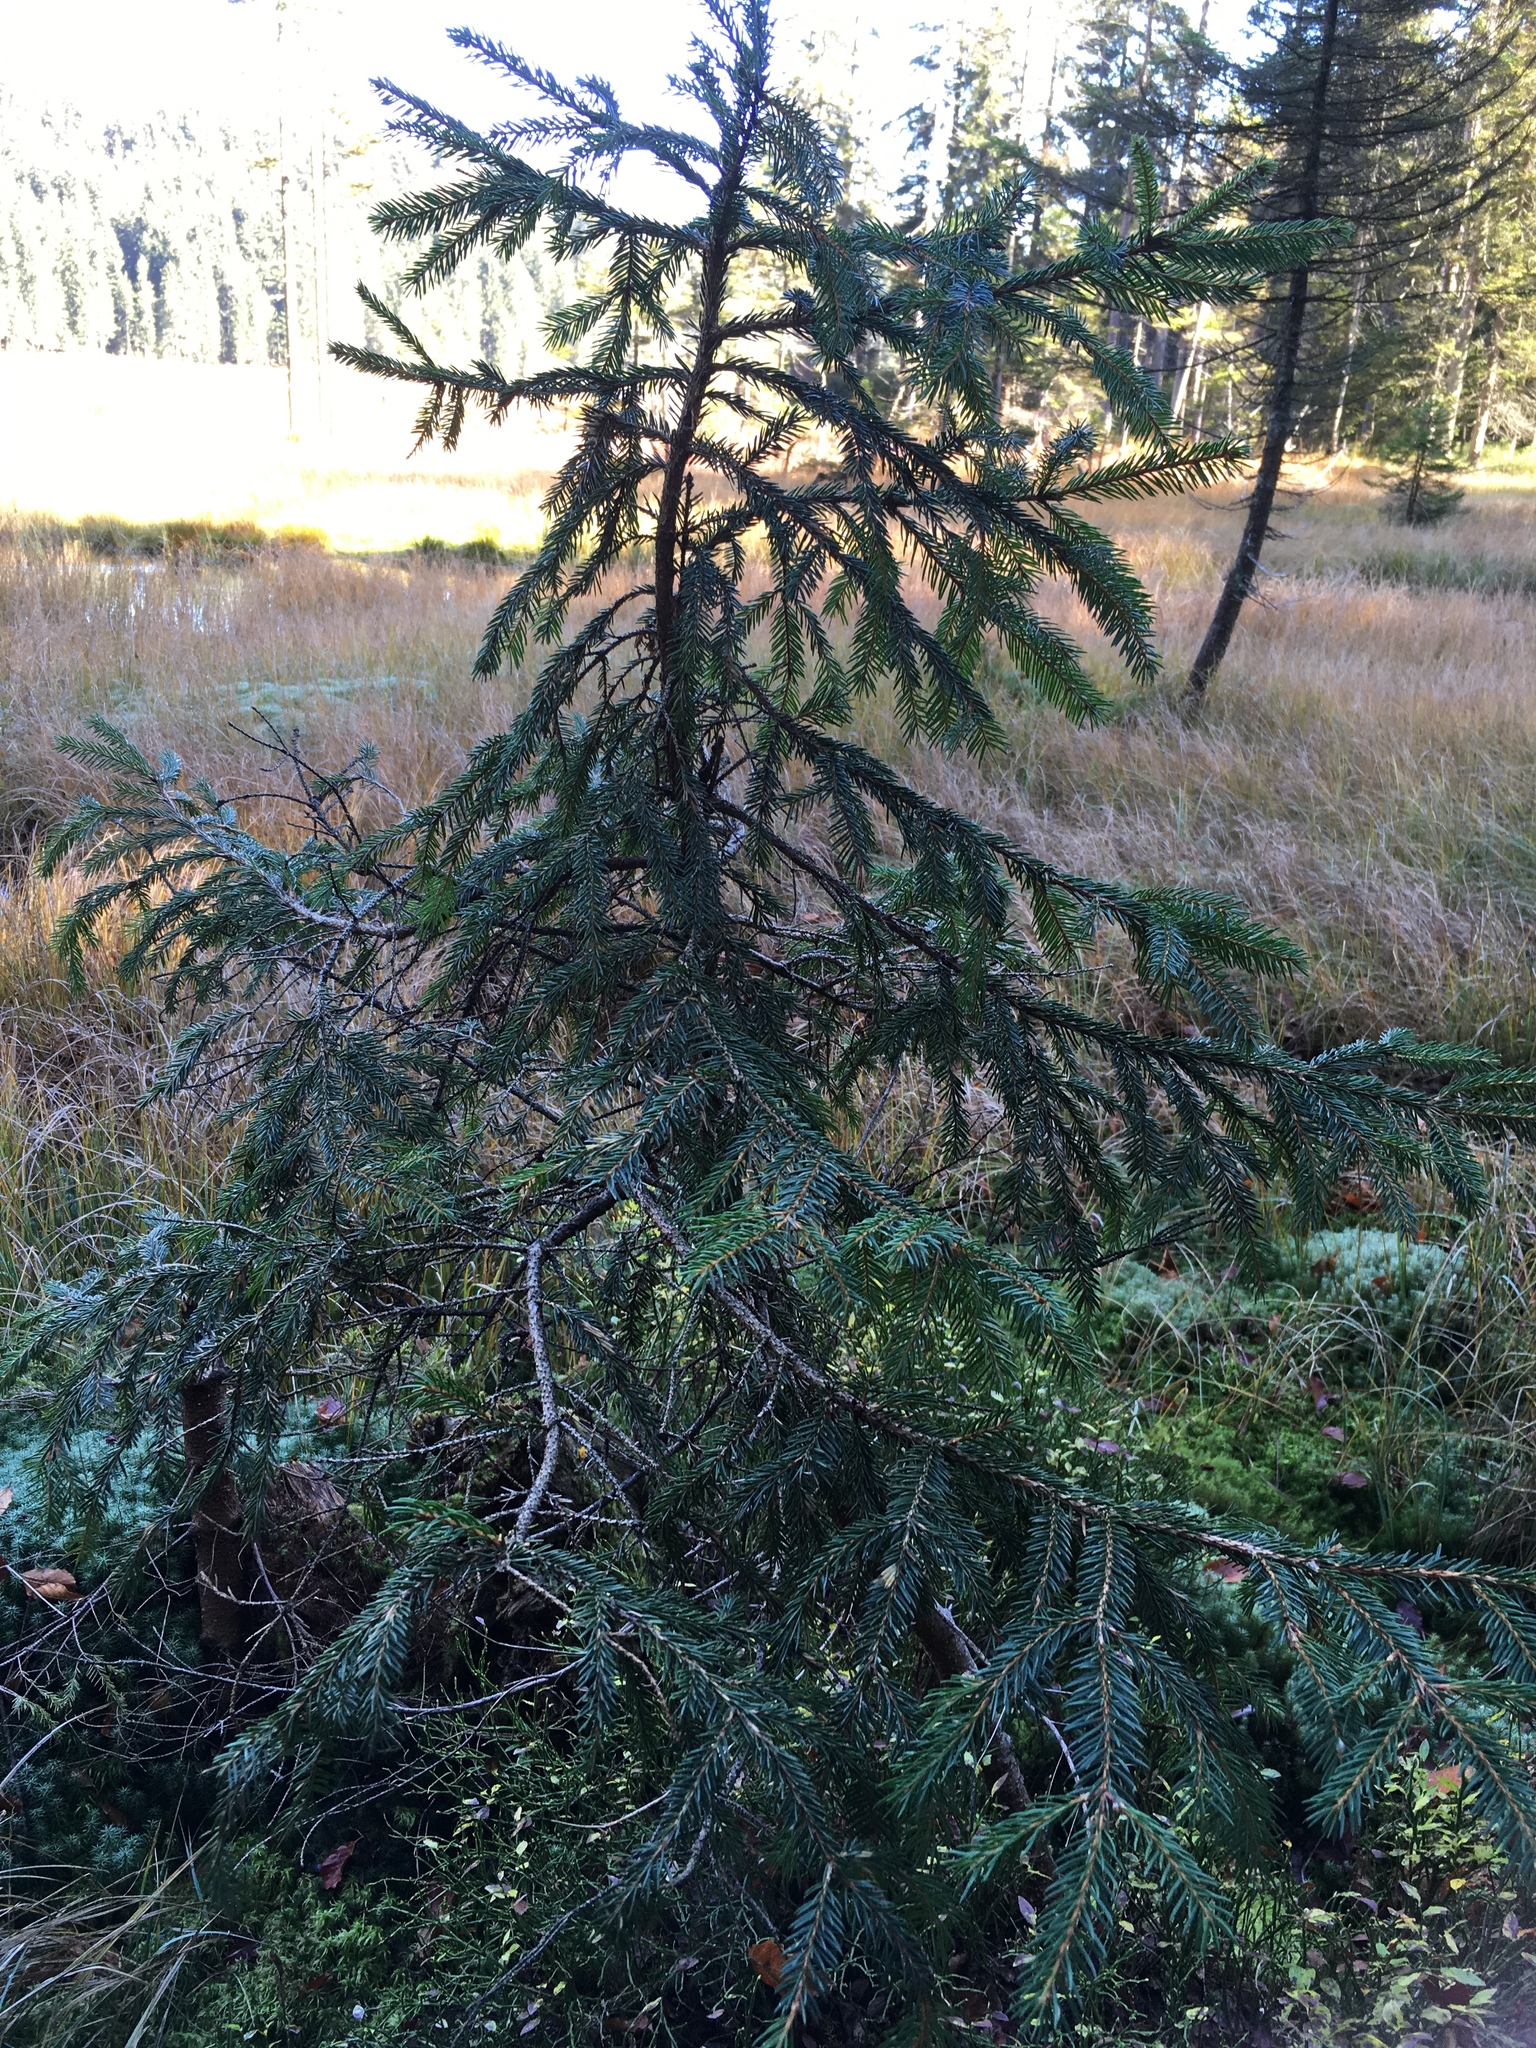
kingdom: Plantae
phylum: Tracheophyta
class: Pinopsida
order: Pinales
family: Pinaceae
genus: Picea
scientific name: Picea abies
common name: Norway spruce
